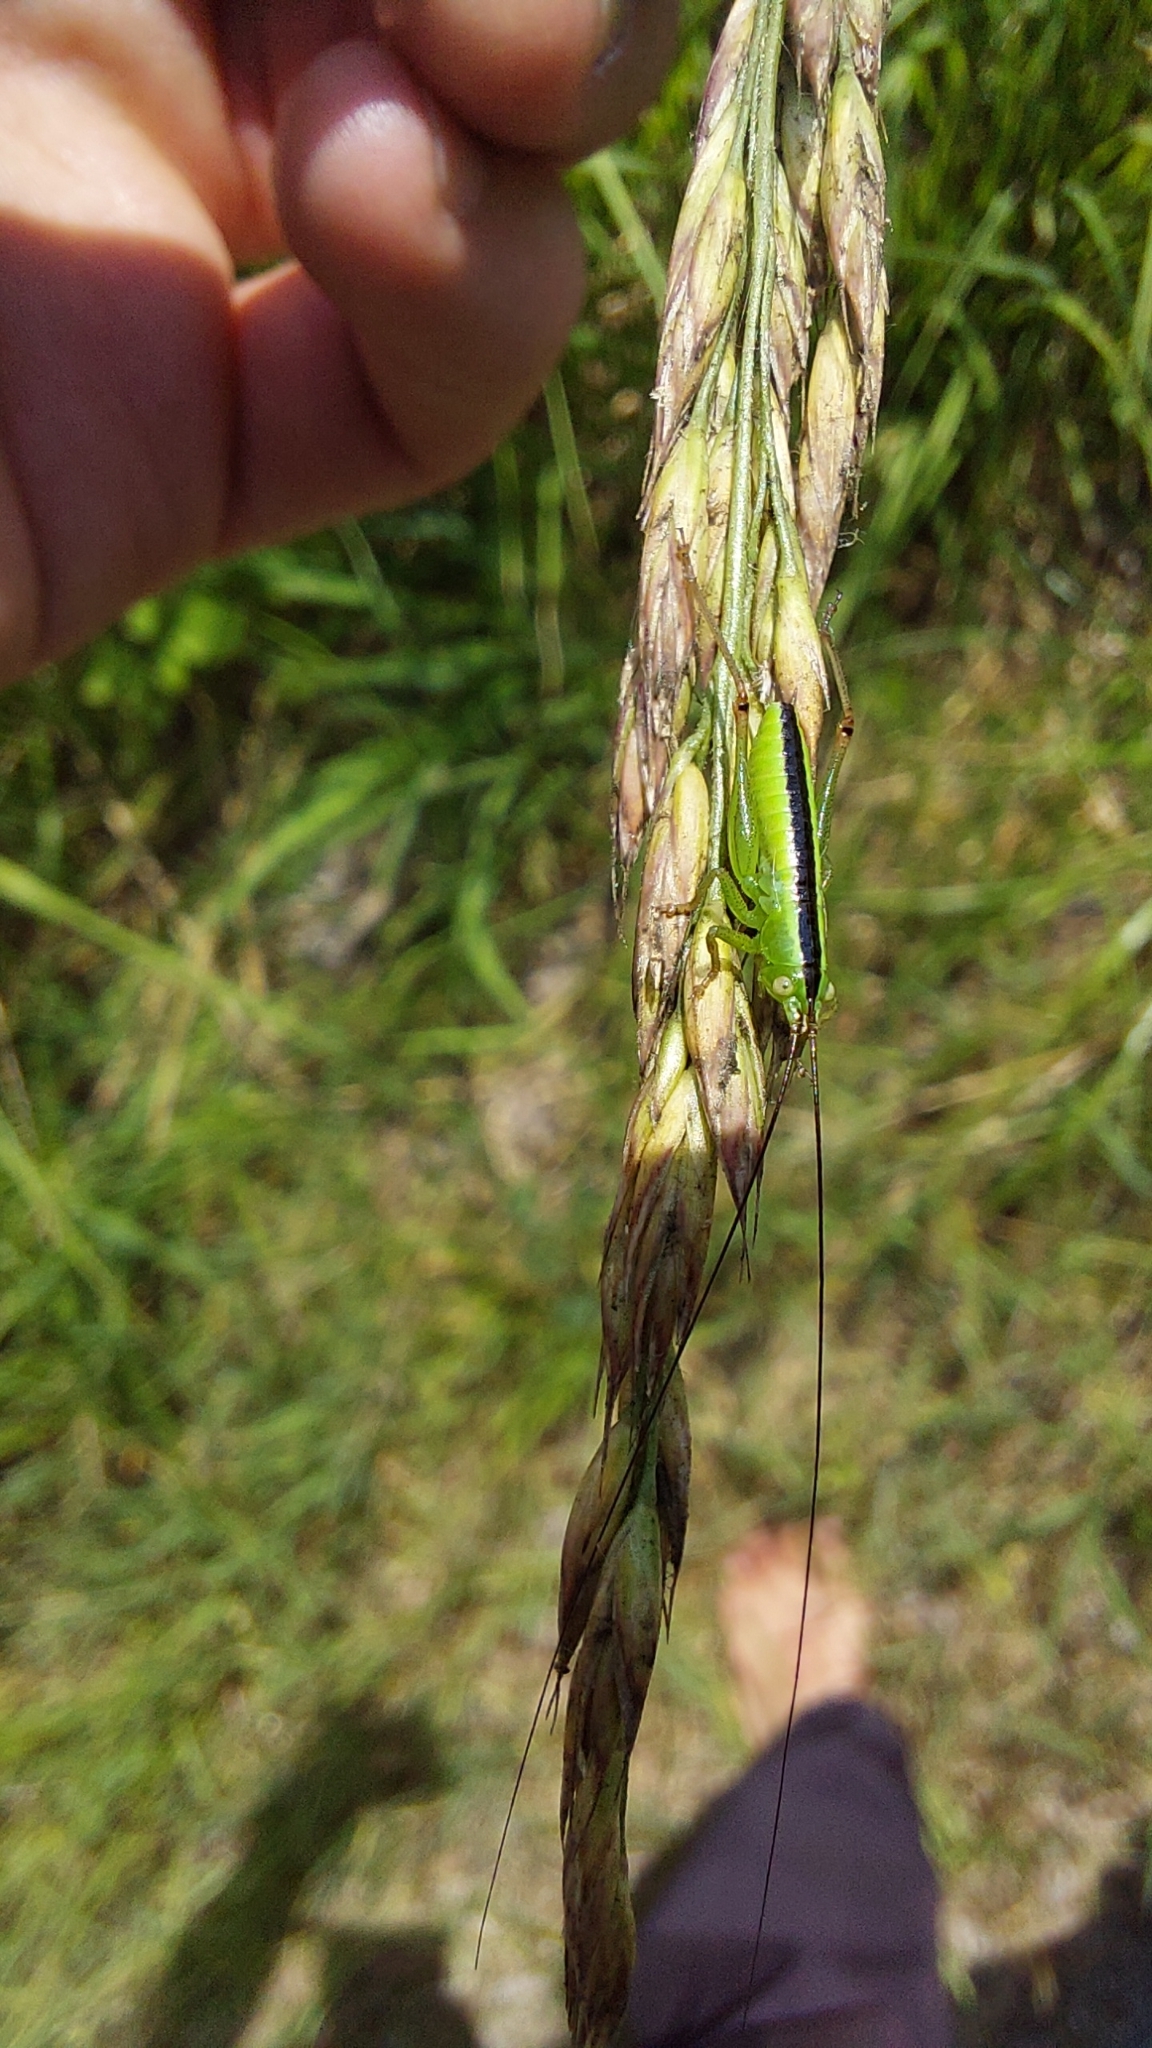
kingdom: Animalia
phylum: Arthropoda
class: Insecta
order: Orthoptera
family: Tettigoniidae
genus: Conocephalus
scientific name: Conocephalus fuscus
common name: Long-winged conehead
